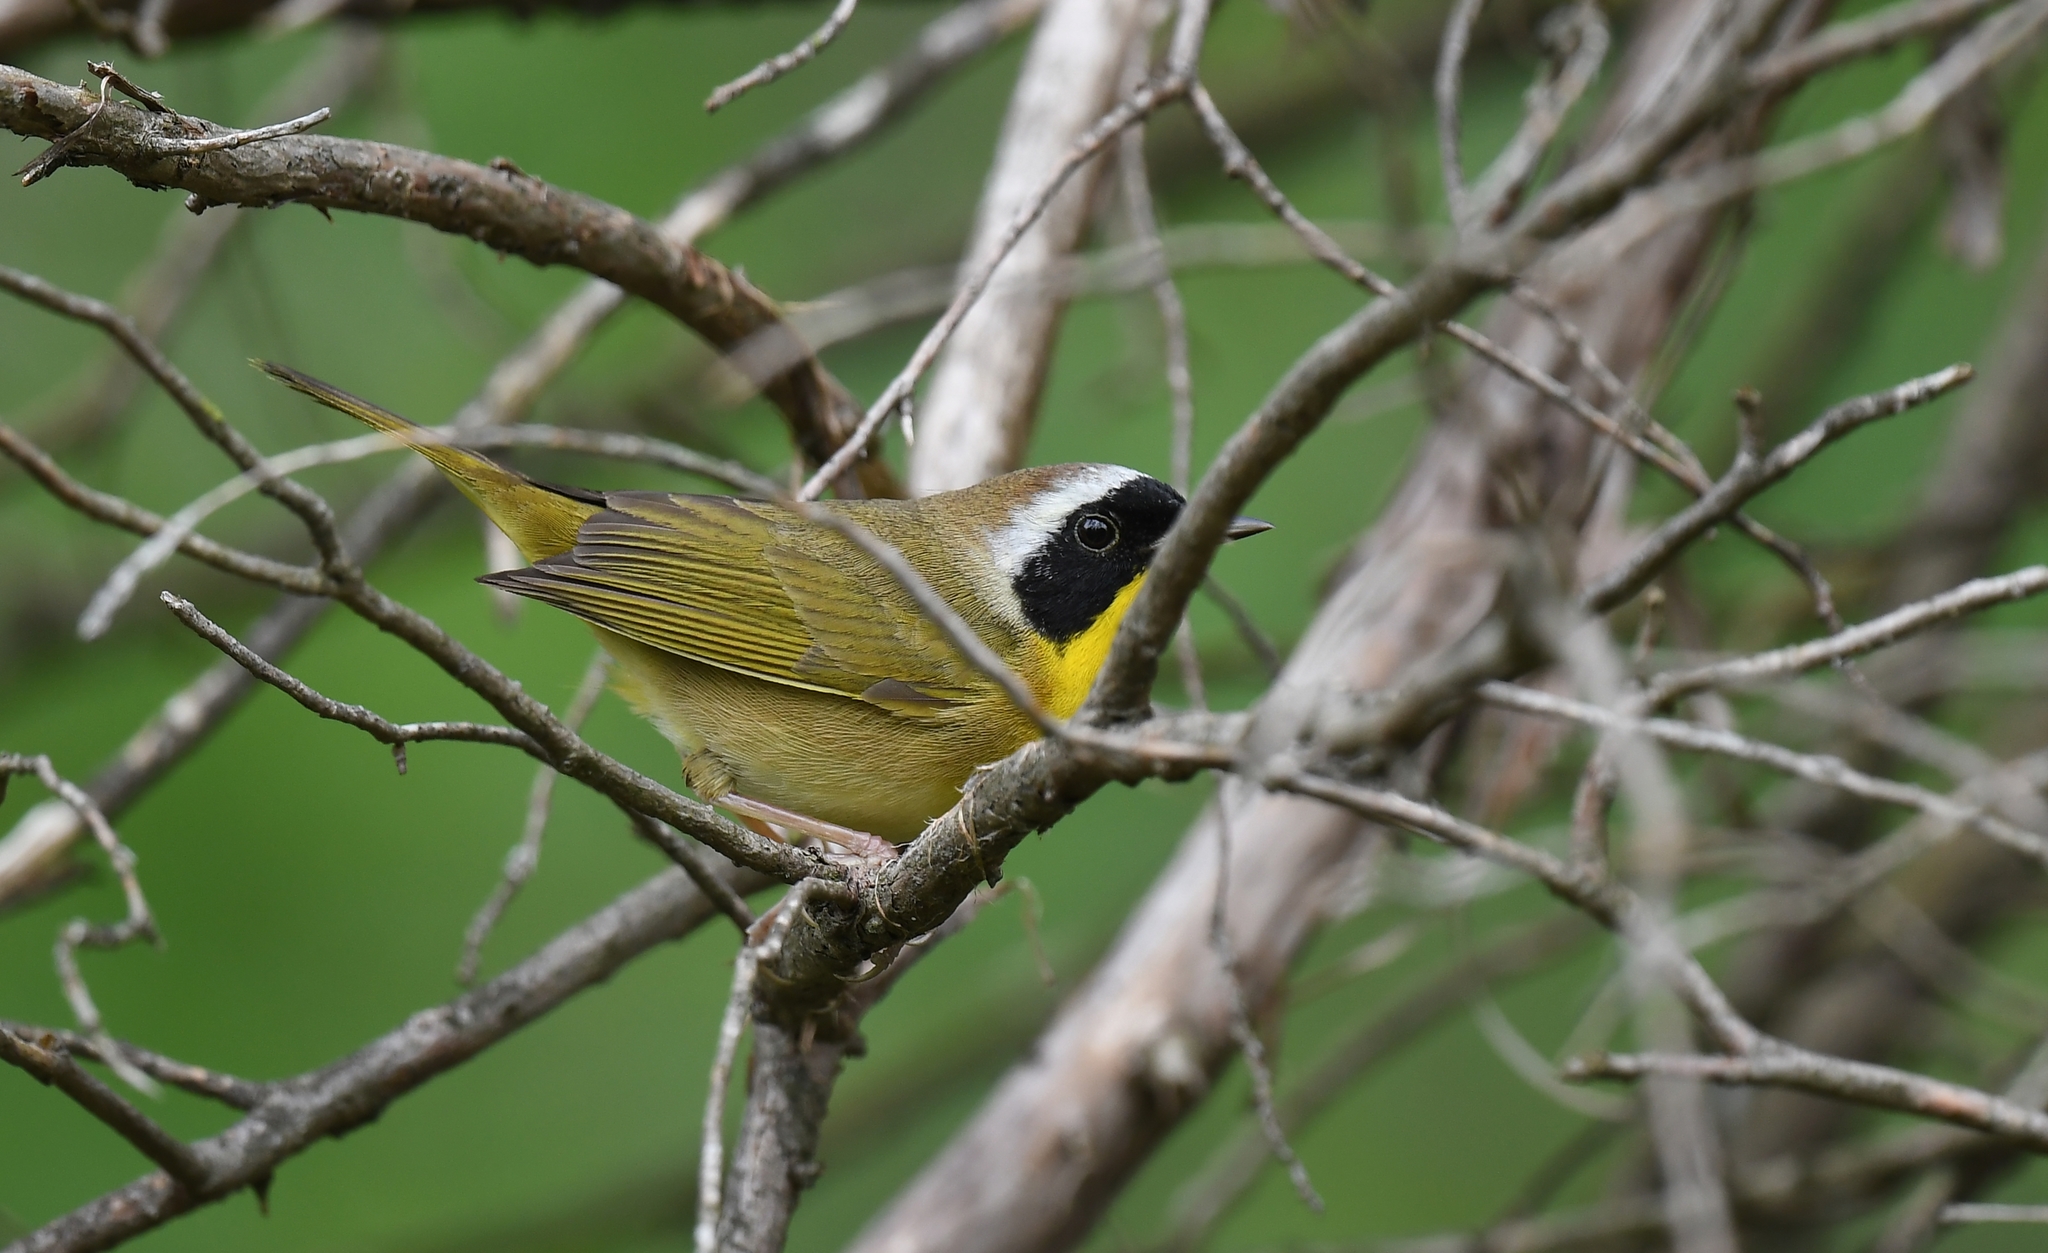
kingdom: Animalia
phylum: Chordata
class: Aves
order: Passeriformes
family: Parulidae
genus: Geothlypis
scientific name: Geothlypis trichas
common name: Common yellowthroat
